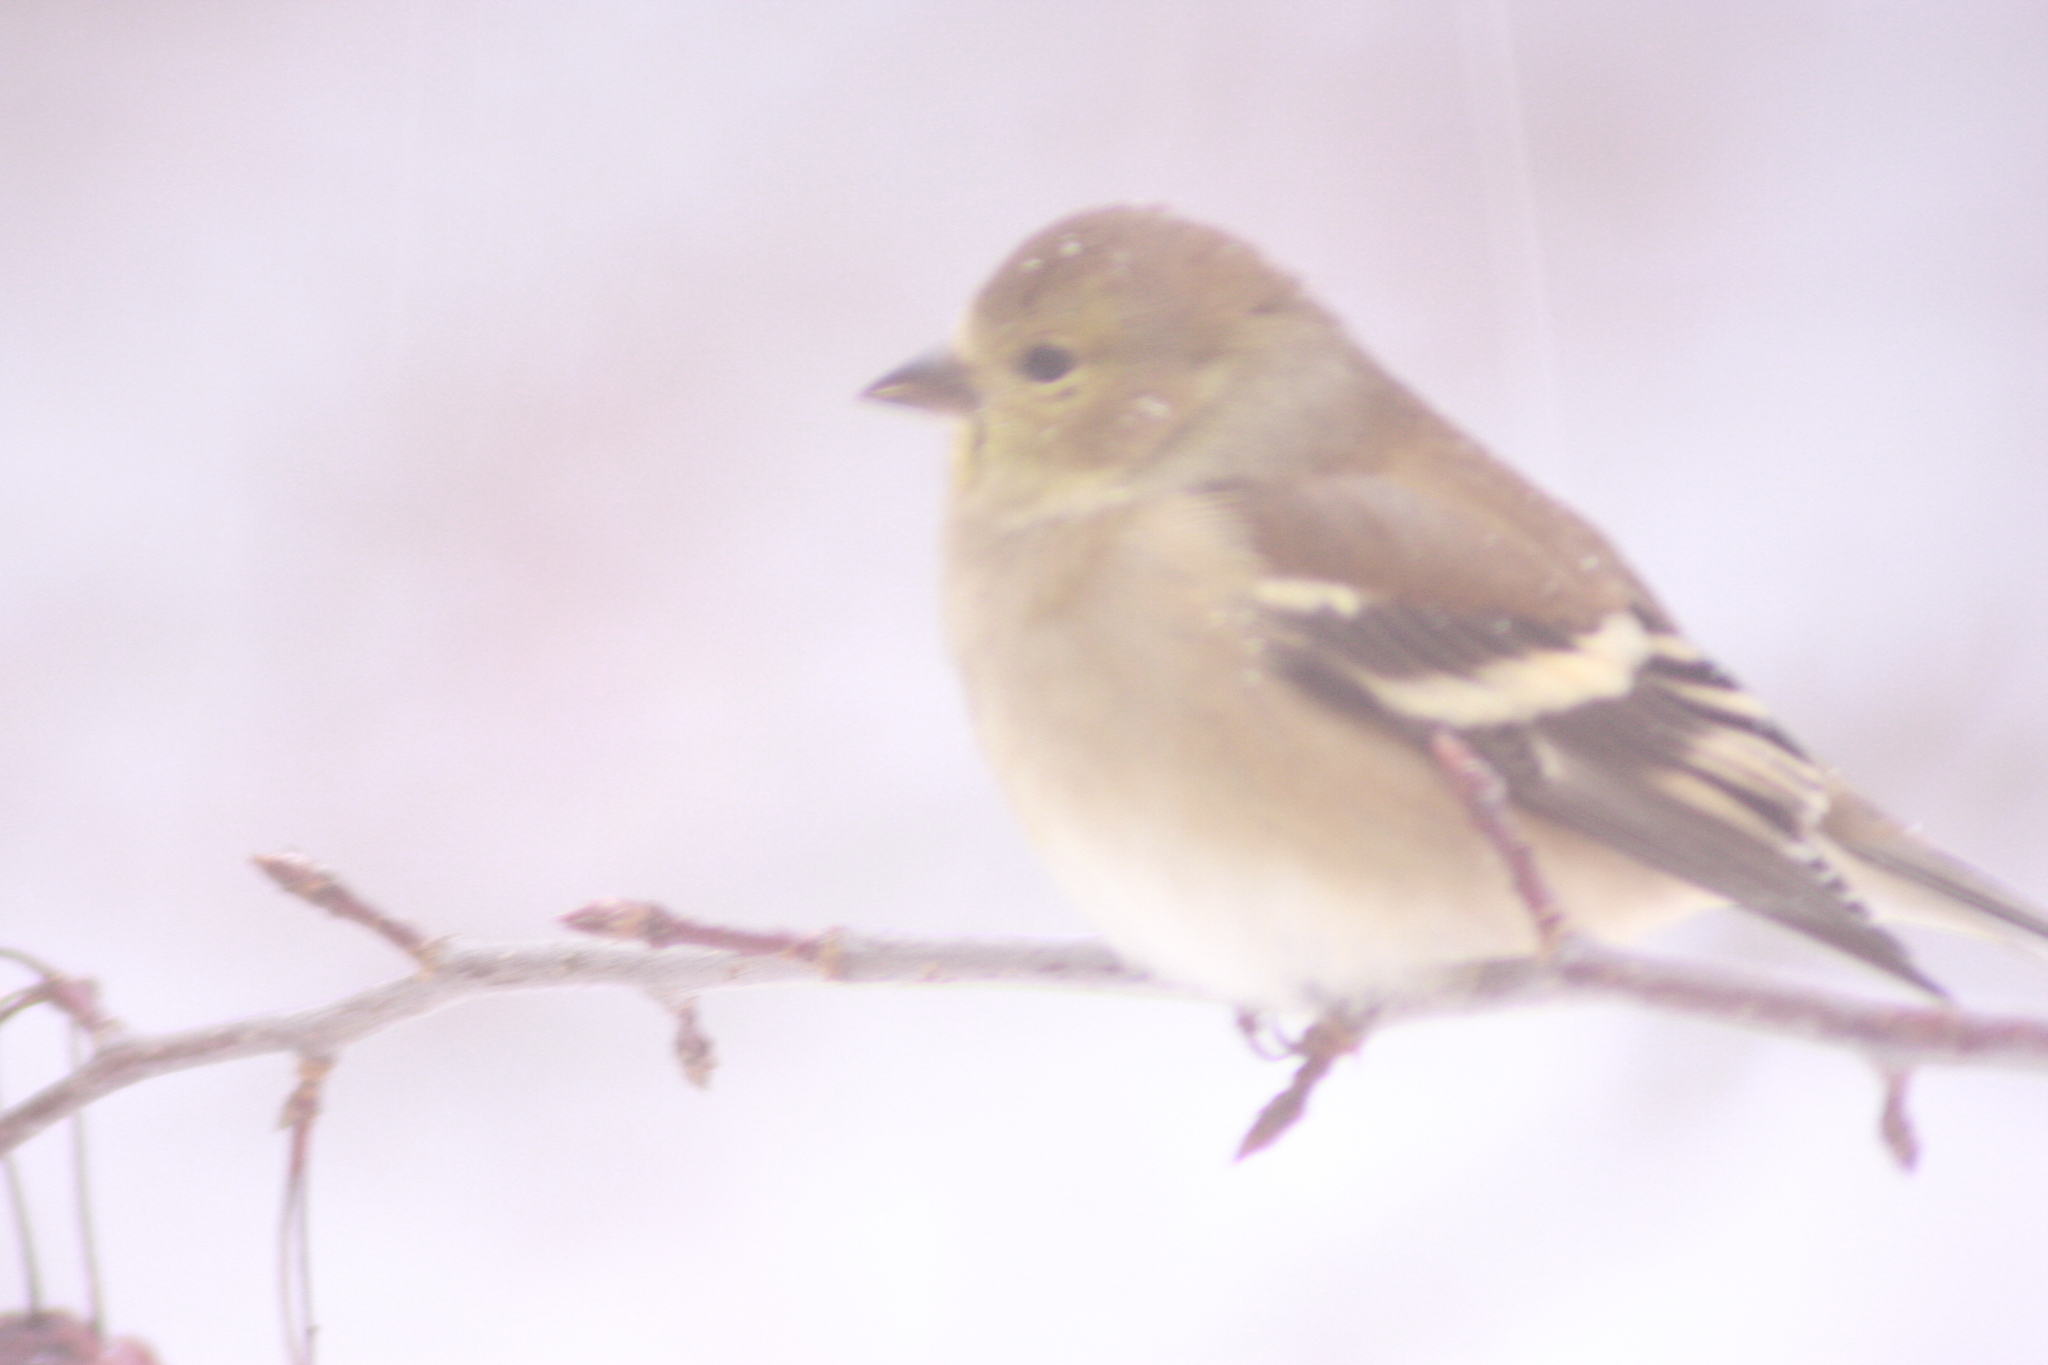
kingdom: Animalia
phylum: Chordata
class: Aves
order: Passeriformes
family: Fringillidae
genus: Spinus
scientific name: Spinus tristis
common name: American goldfinch
